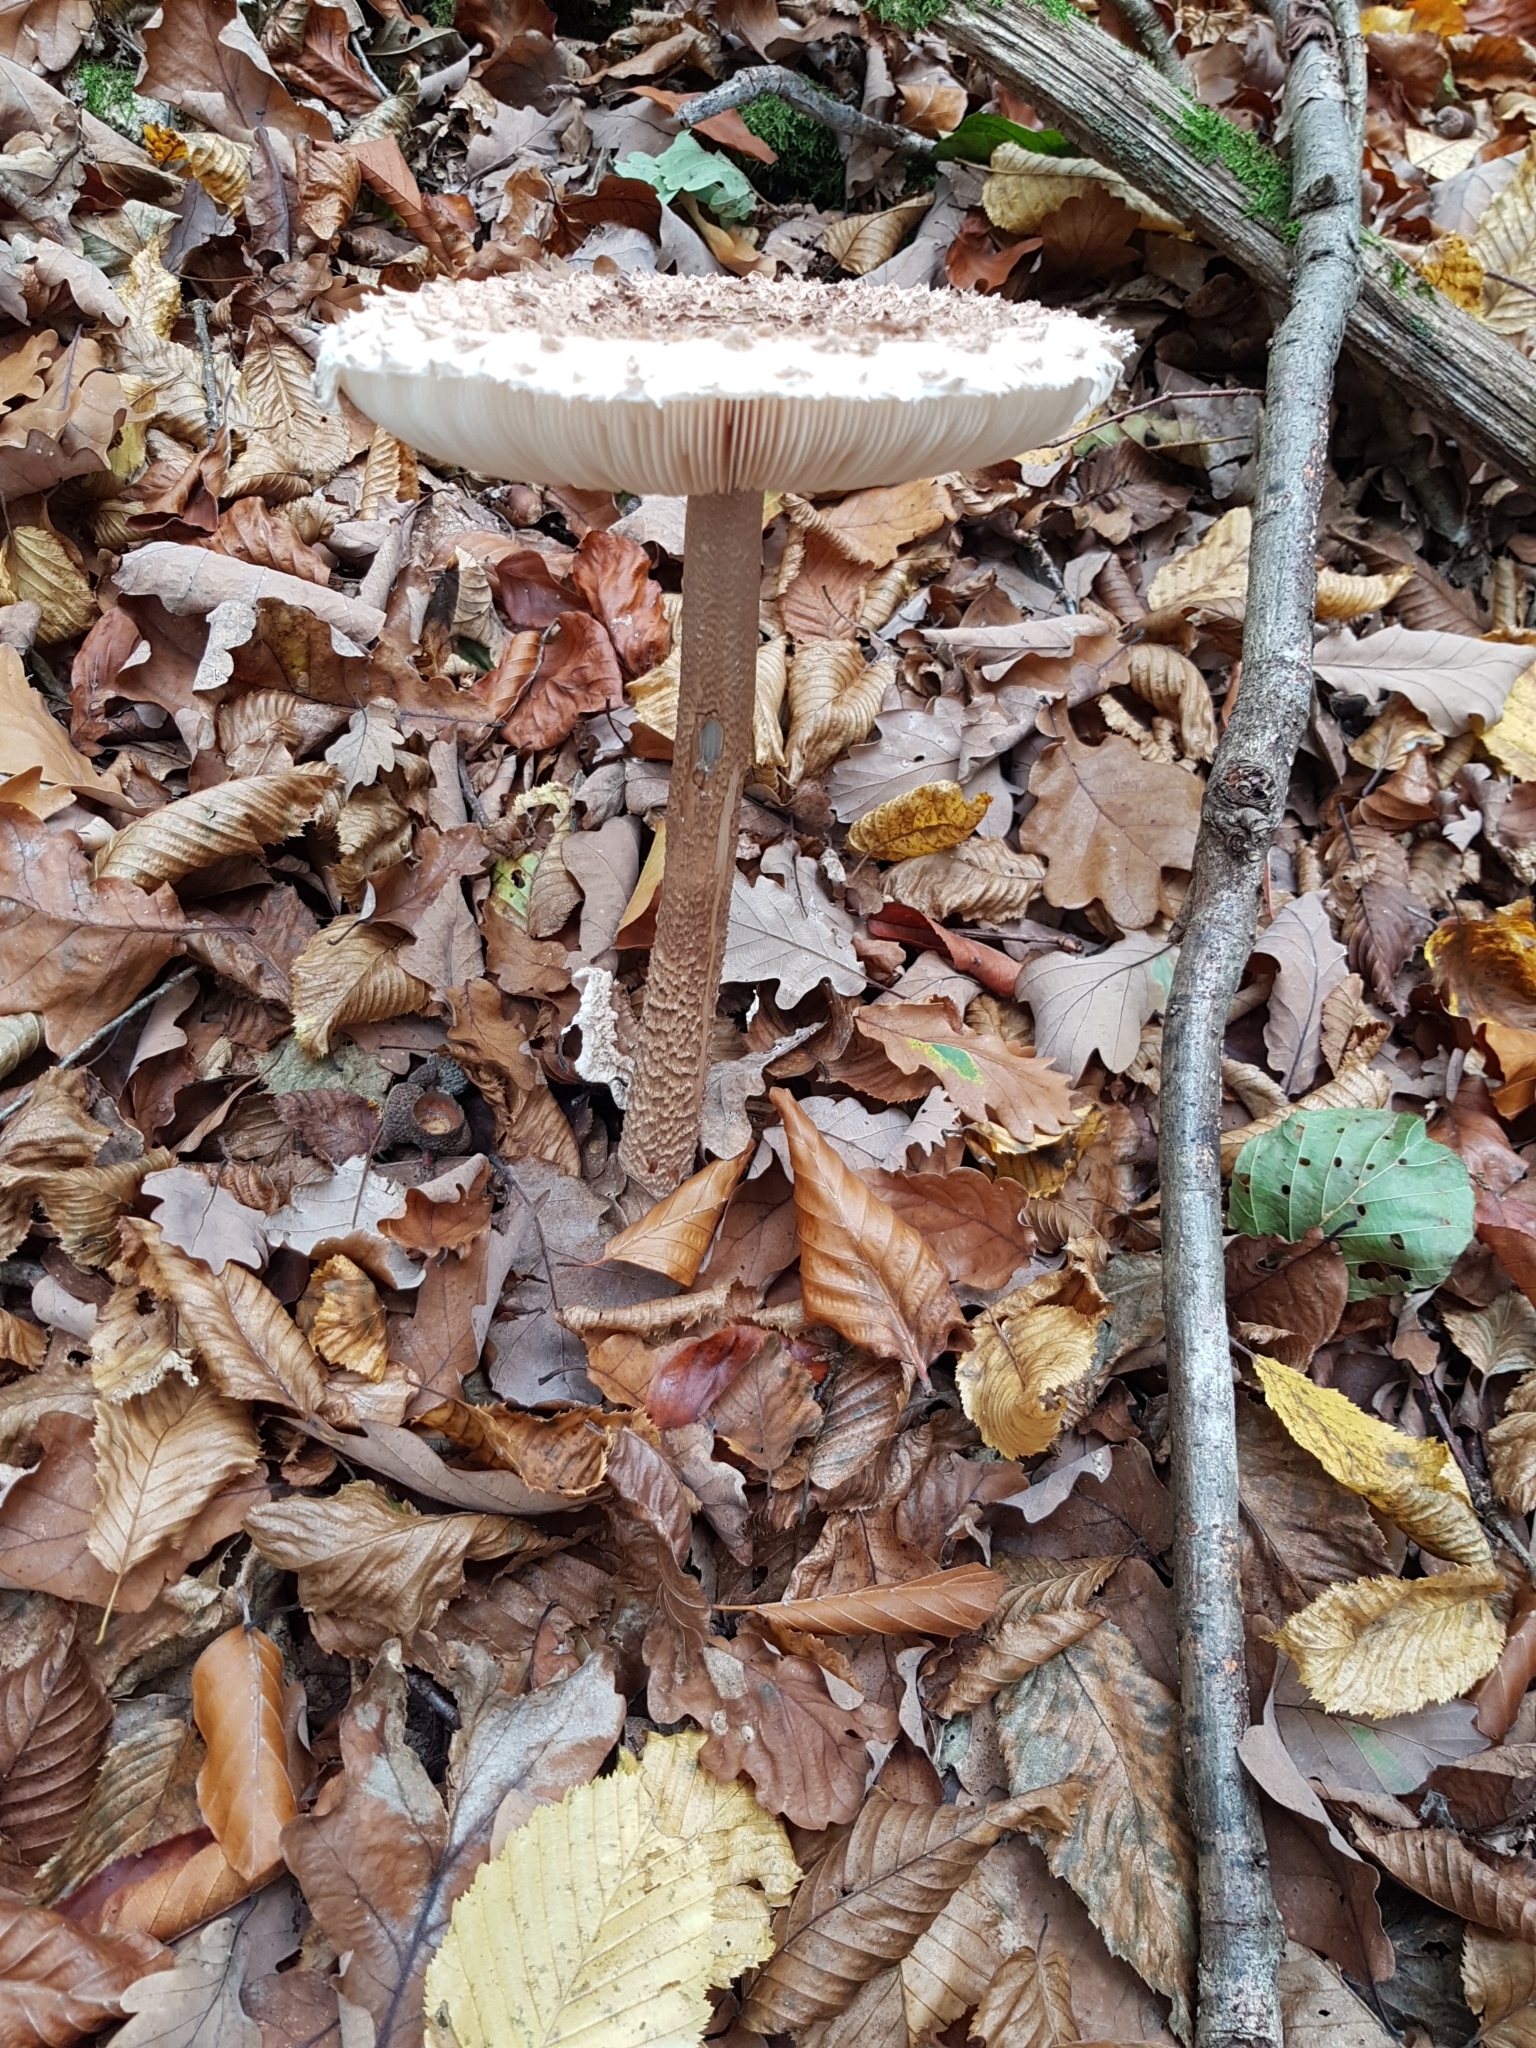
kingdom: Fungi
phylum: Basidiomycota
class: Agaricomycetes
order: Agaricales
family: Agaricaceae
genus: Macrolepiota
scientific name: Macrolepiota procera
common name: Parasol
